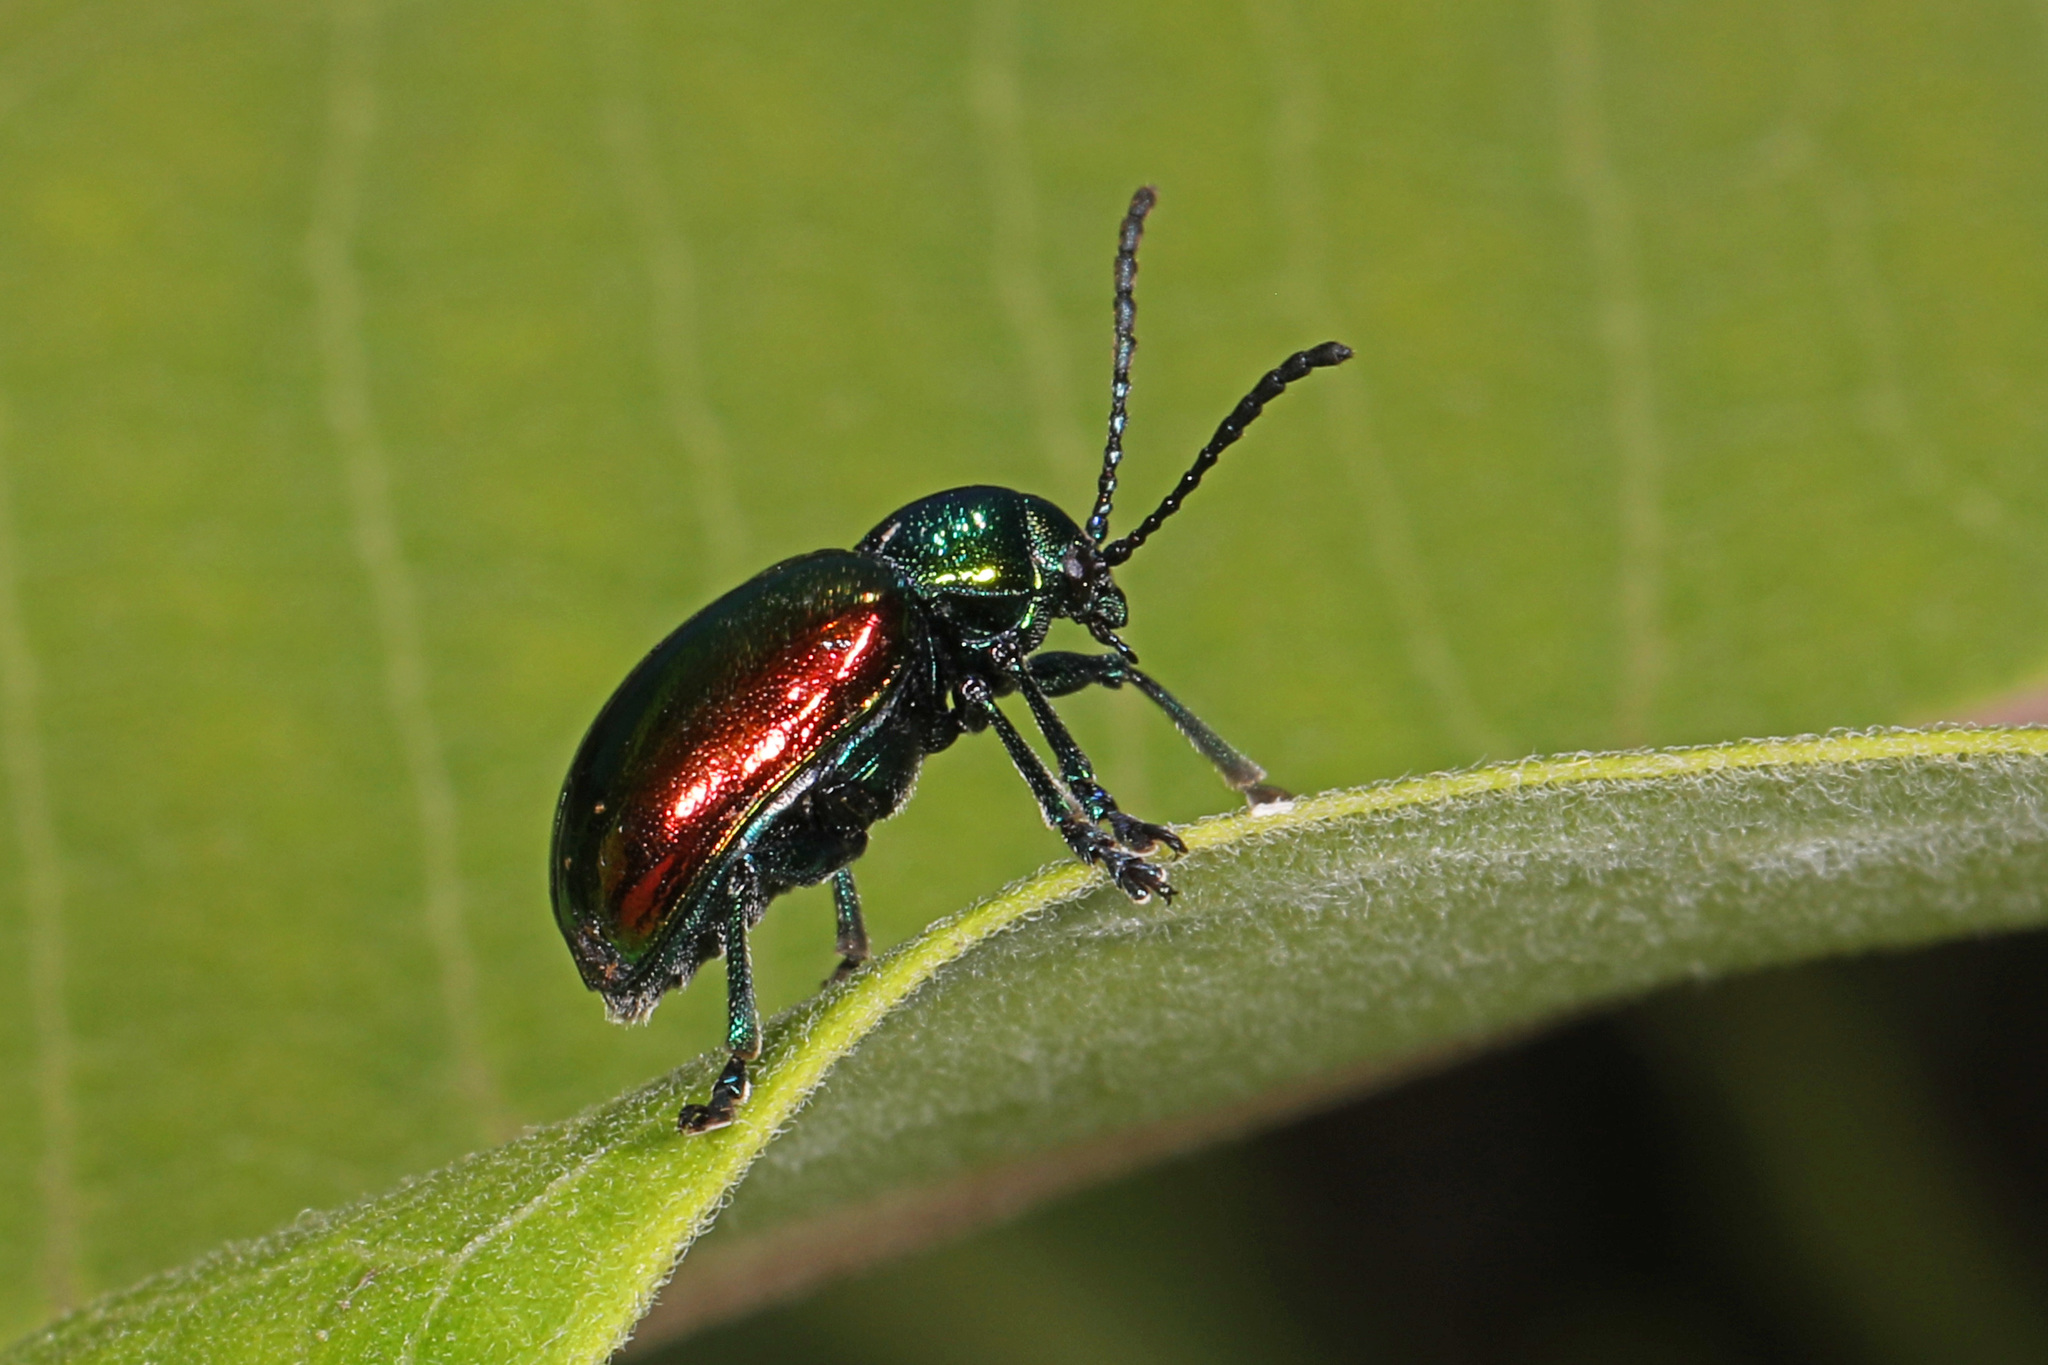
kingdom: Animalia
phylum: Arthropoda
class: Insecta
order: Coleoptera
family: Chrysomelidae
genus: Chrysochus
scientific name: Chrysochus auratus
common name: Dogbane leaf beetle
